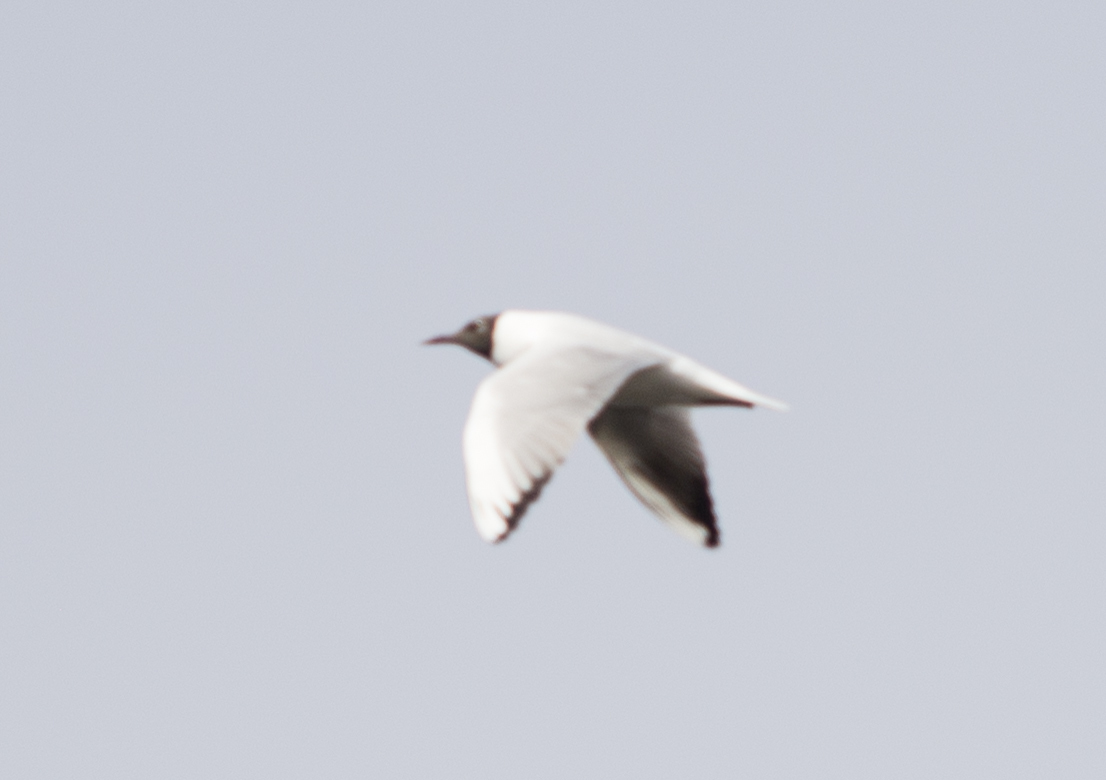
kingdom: Animalia
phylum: Chordata
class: Aves
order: Charadriiformes
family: Laridae
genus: Chroicocephalus
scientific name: Chroicocephalus ridibundus
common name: Black-headed gull
